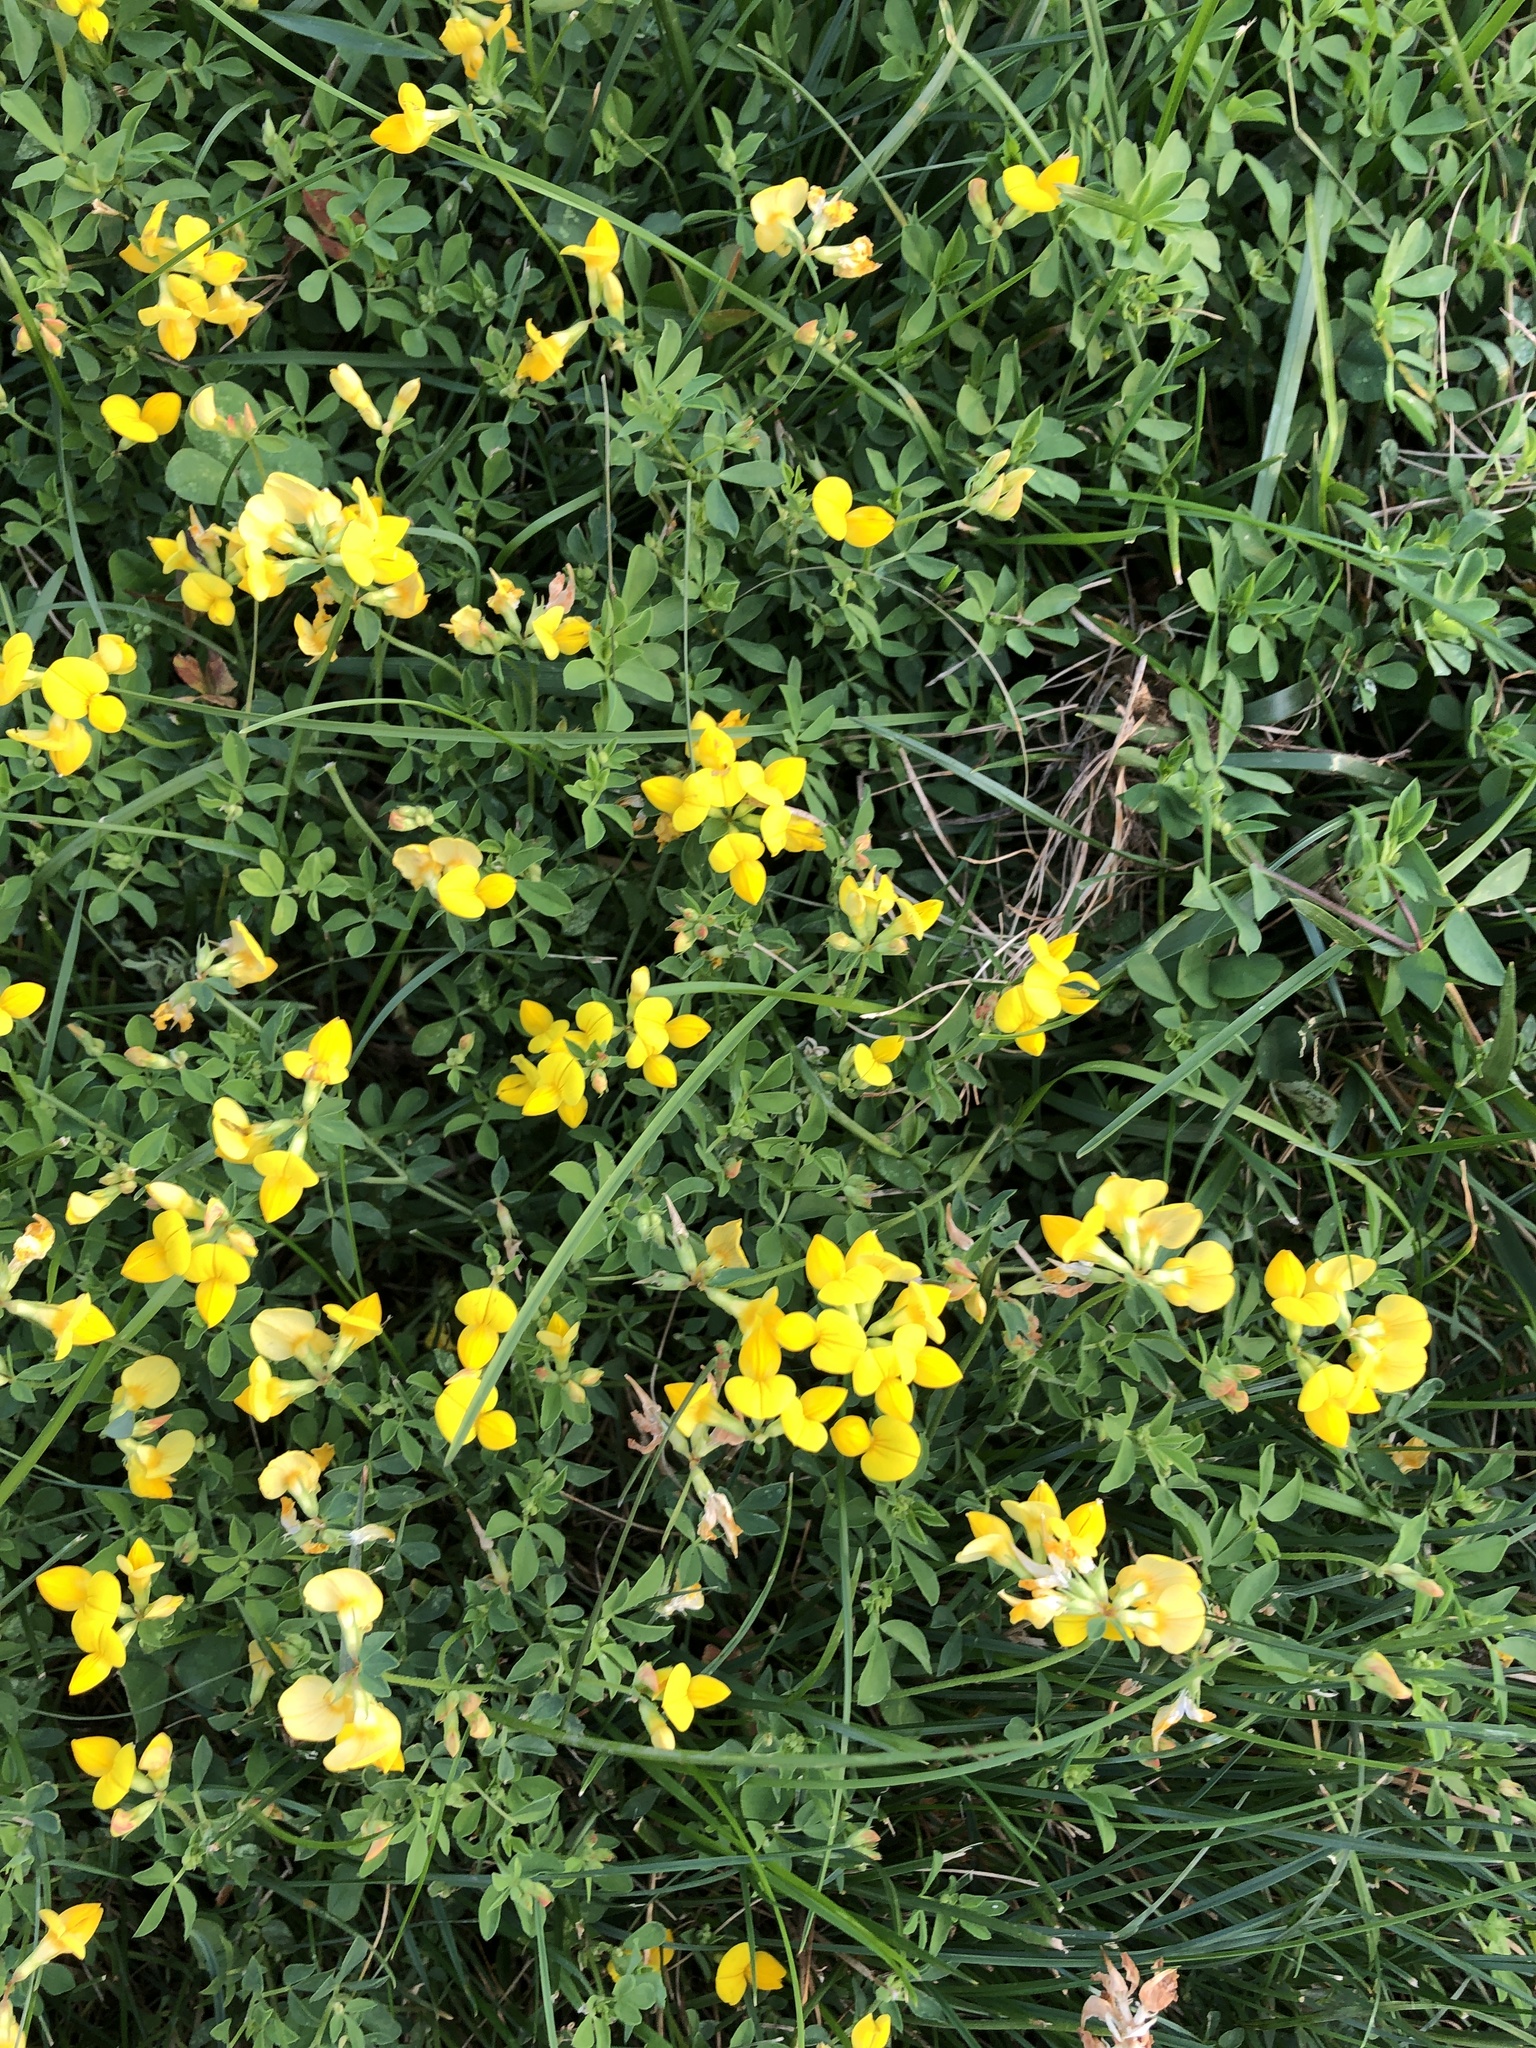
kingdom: Plantae
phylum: Tracheophyta
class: Magnoliopsida
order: Fabales
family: Fabaceae
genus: Lotus
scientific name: Lotus corniculatus
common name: Common bird's-foot-trefoil
